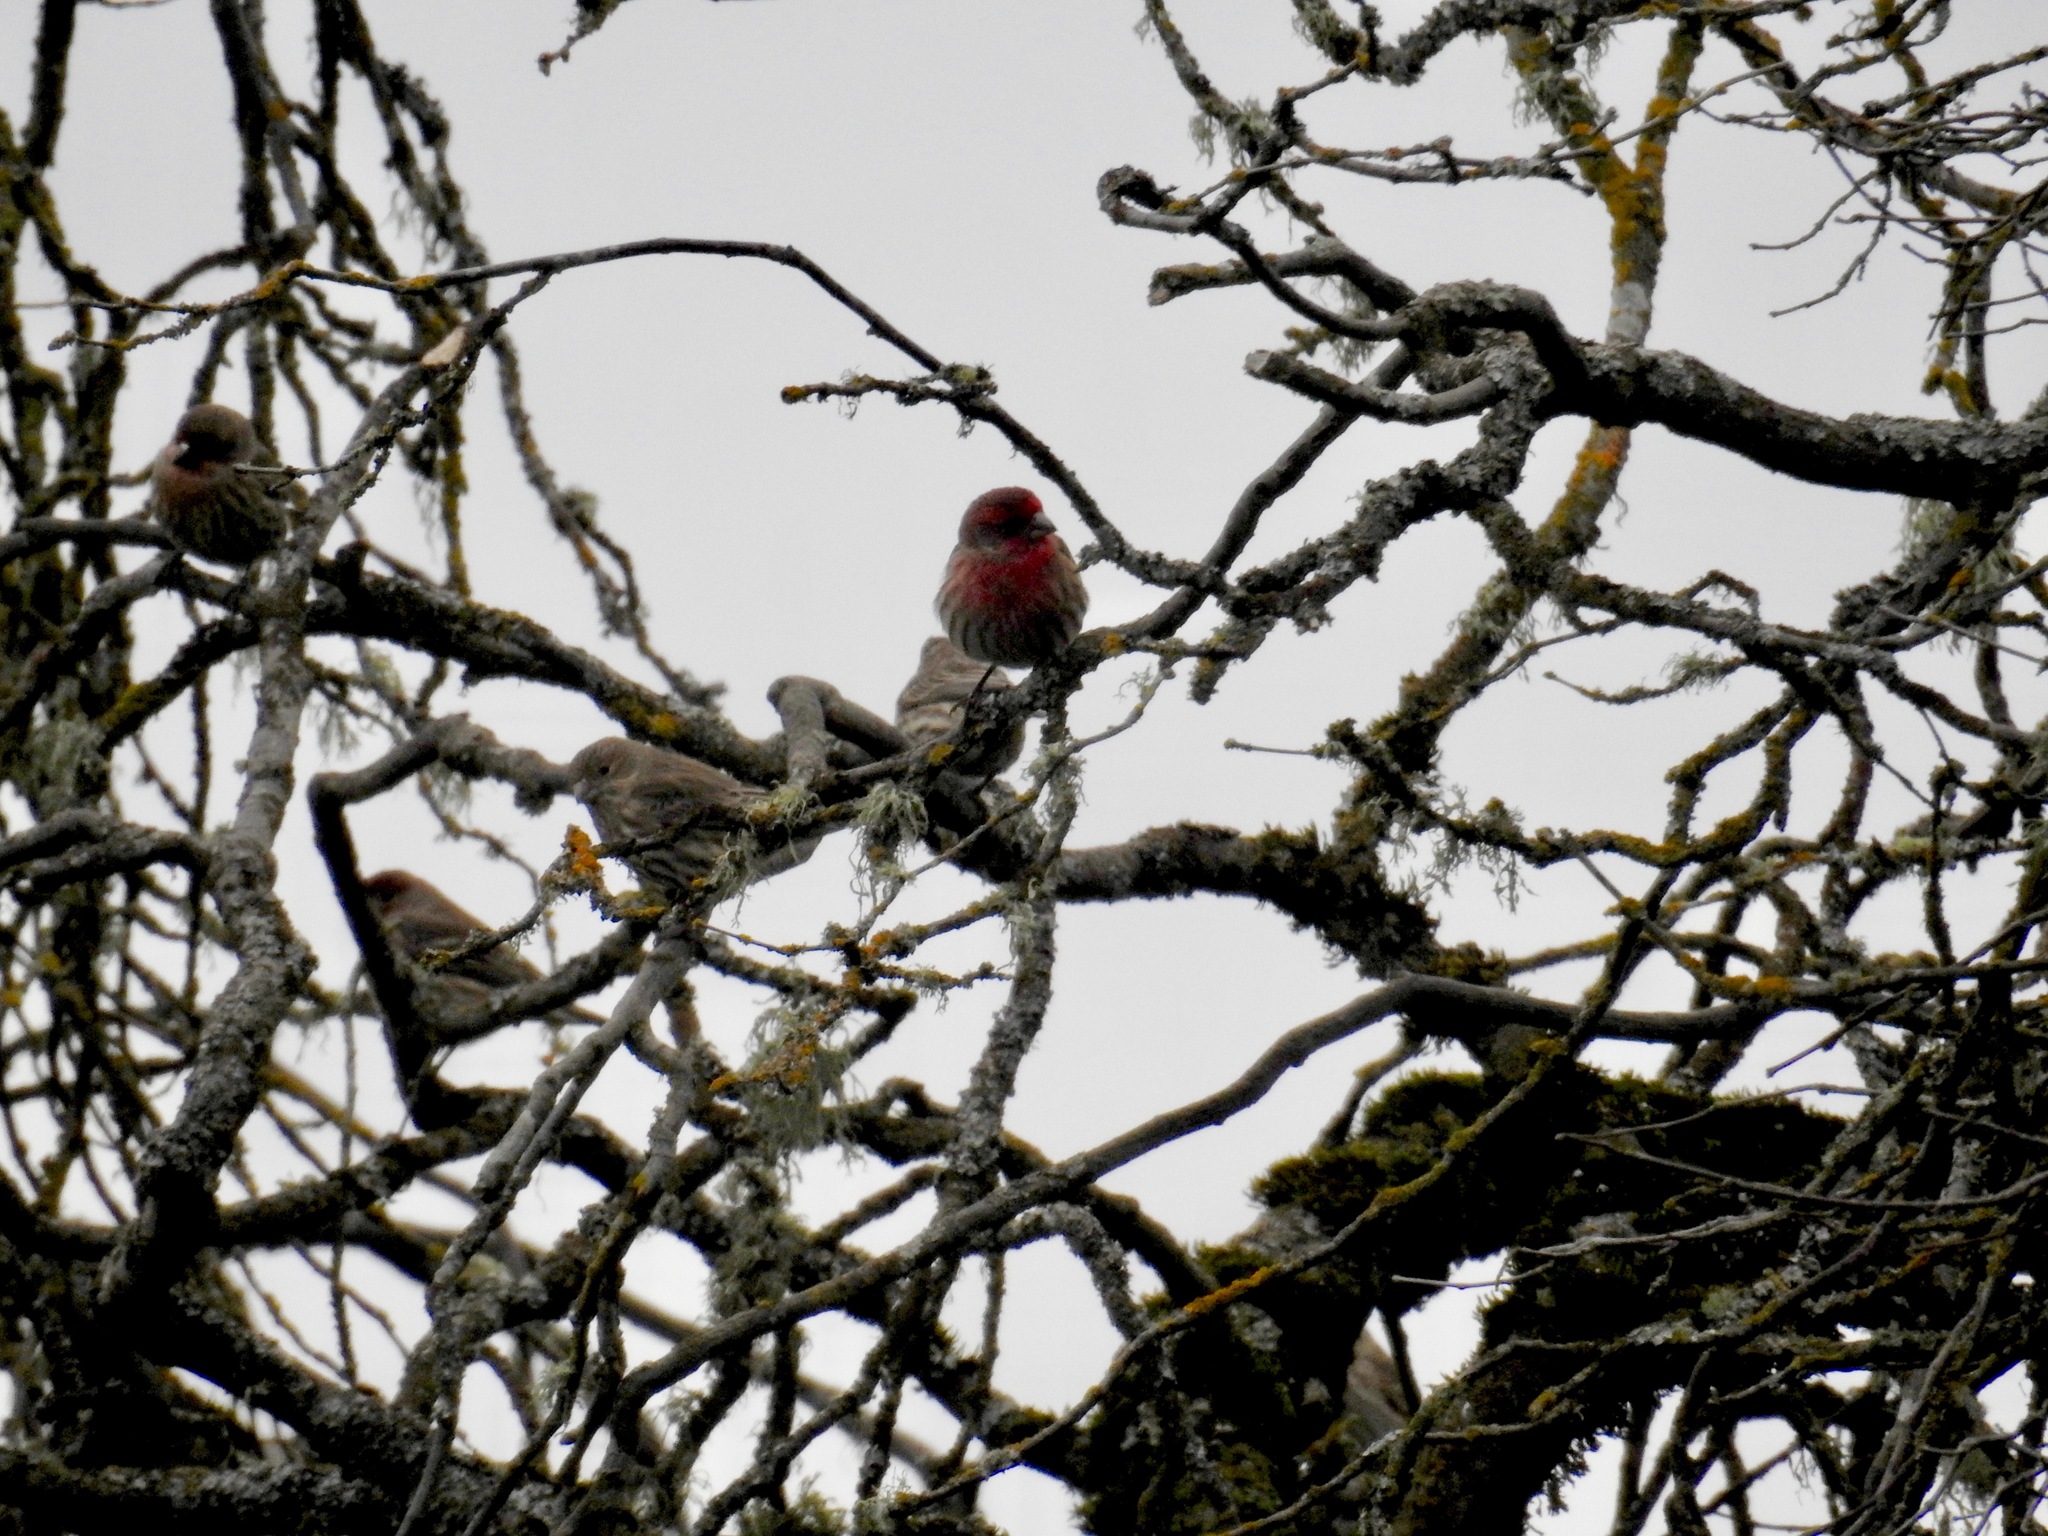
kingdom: Animalia
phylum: Chordata
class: Aves
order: Passeriformes
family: Fringillidae
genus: Haemorhous
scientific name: Haemorhous mexicanus
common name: House finch
